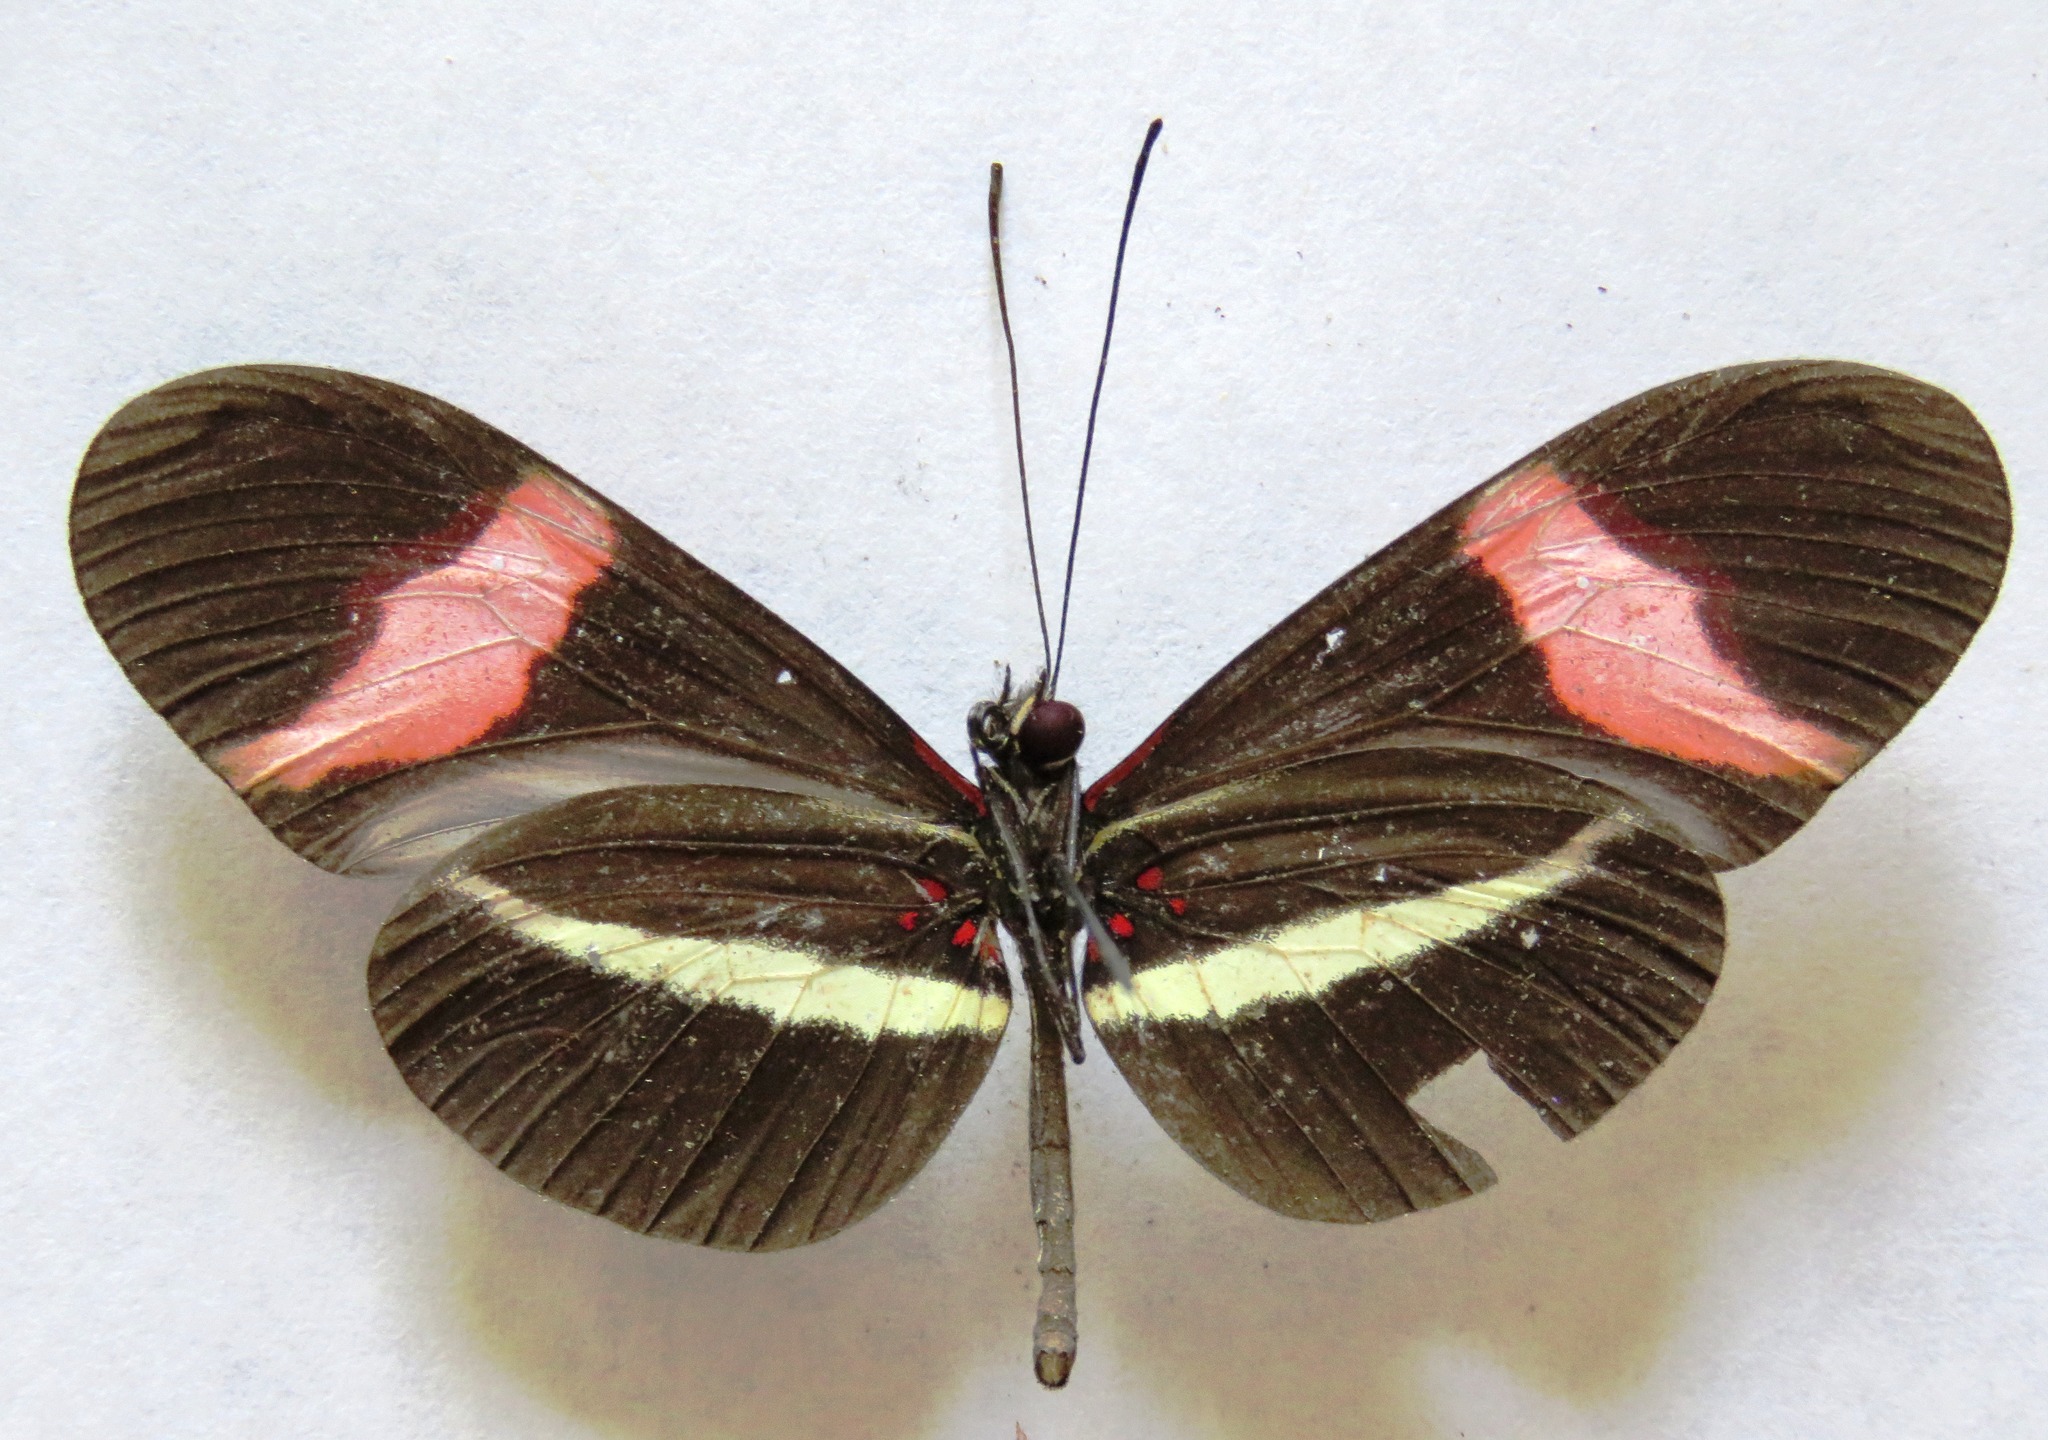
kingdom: Animalia
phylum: Arthropoda
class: Insecta
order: Lepidoptera
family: Nymphalidae
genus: Tirumala
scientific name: Tirumala petiverana
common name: Blue monarch
